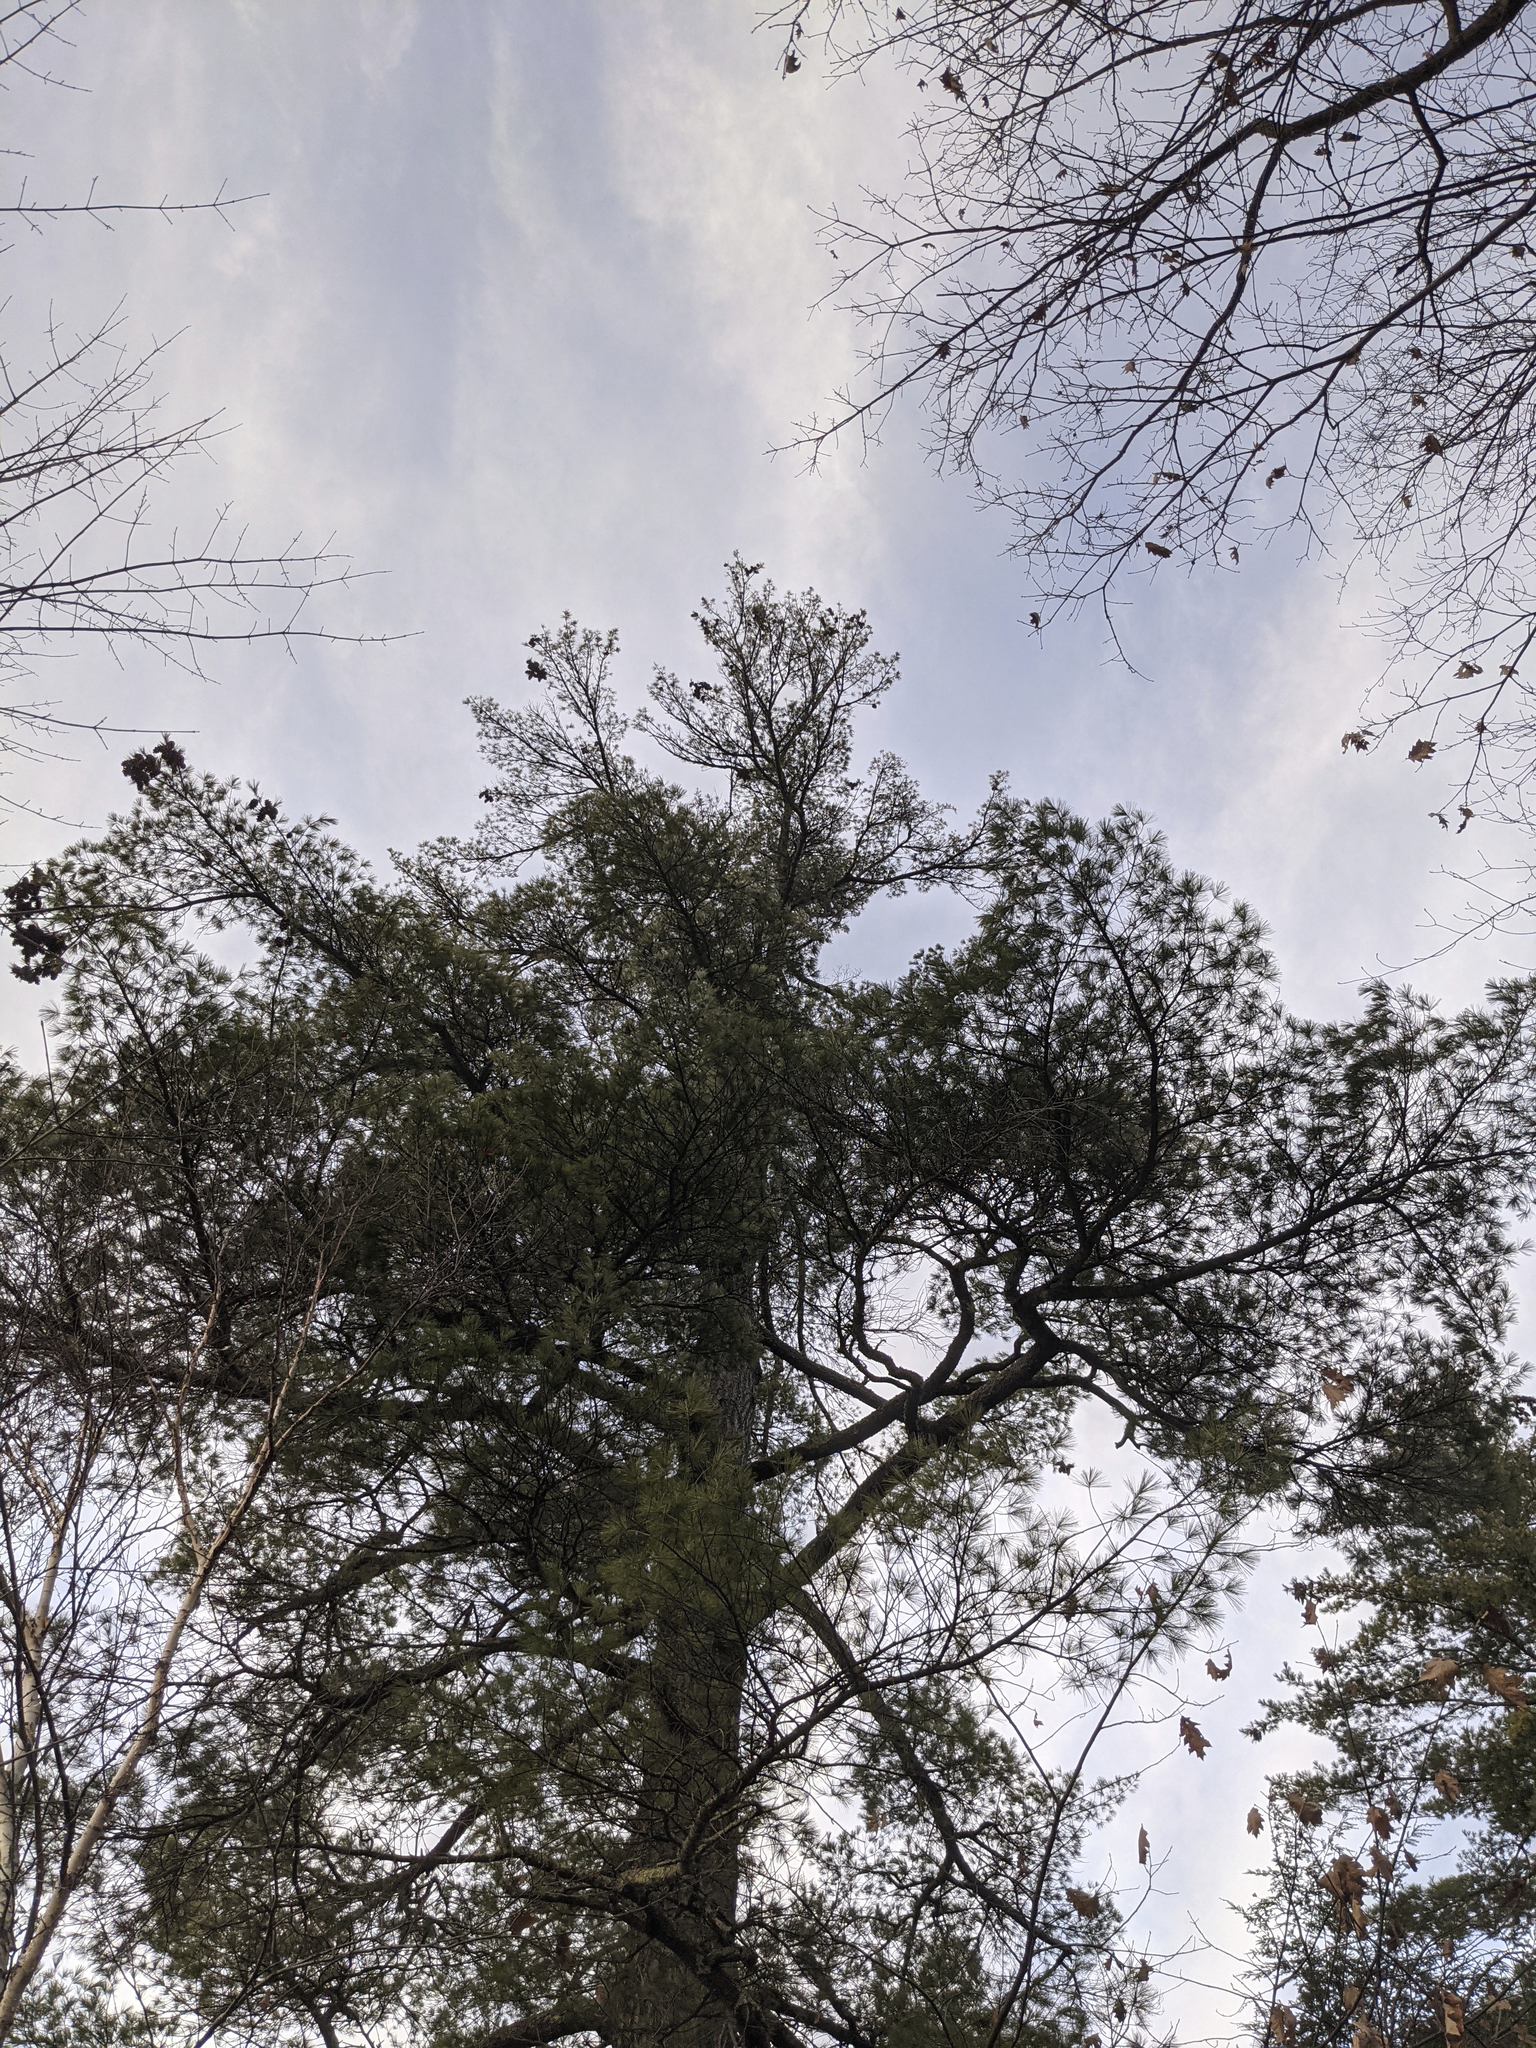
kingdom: Plantae
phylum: Tracheophyta
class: Pinopsida
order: Pinales
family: Pinaceae
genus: Pinus
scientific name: Pinus strobus
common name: Weymouth pine
